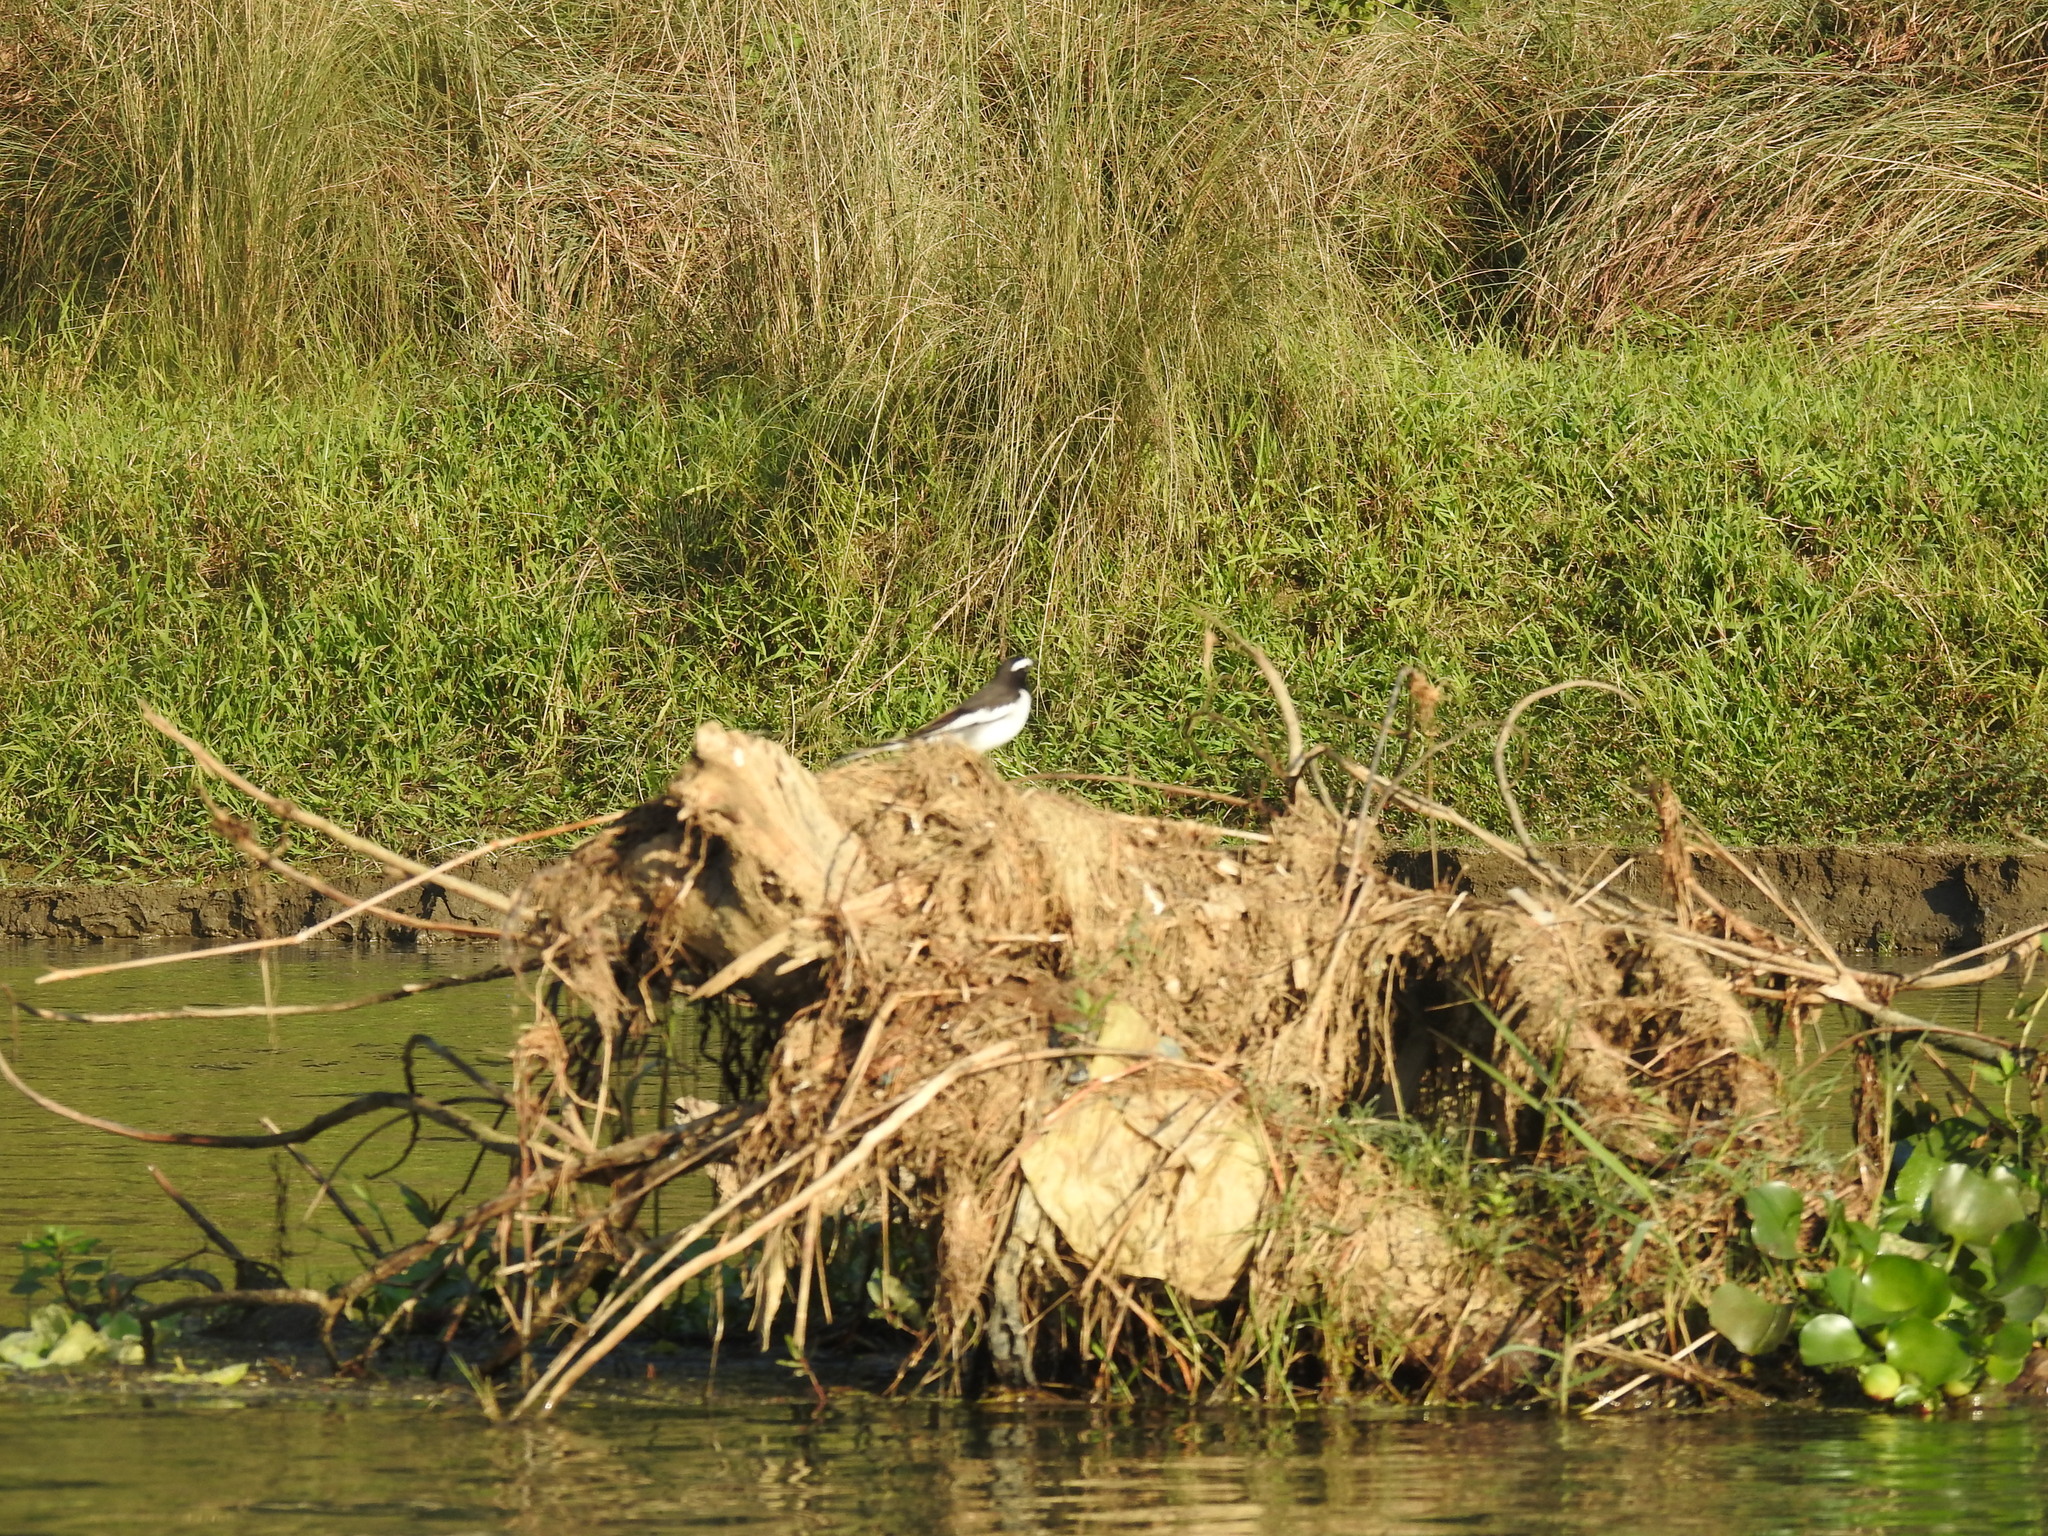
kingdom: Animalia
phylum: Chordata
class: Aves
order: Passeriformes
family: Motacillidae
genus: Motacilla
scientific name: Motacilla maderaspatensis
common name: White-browed wagtail
